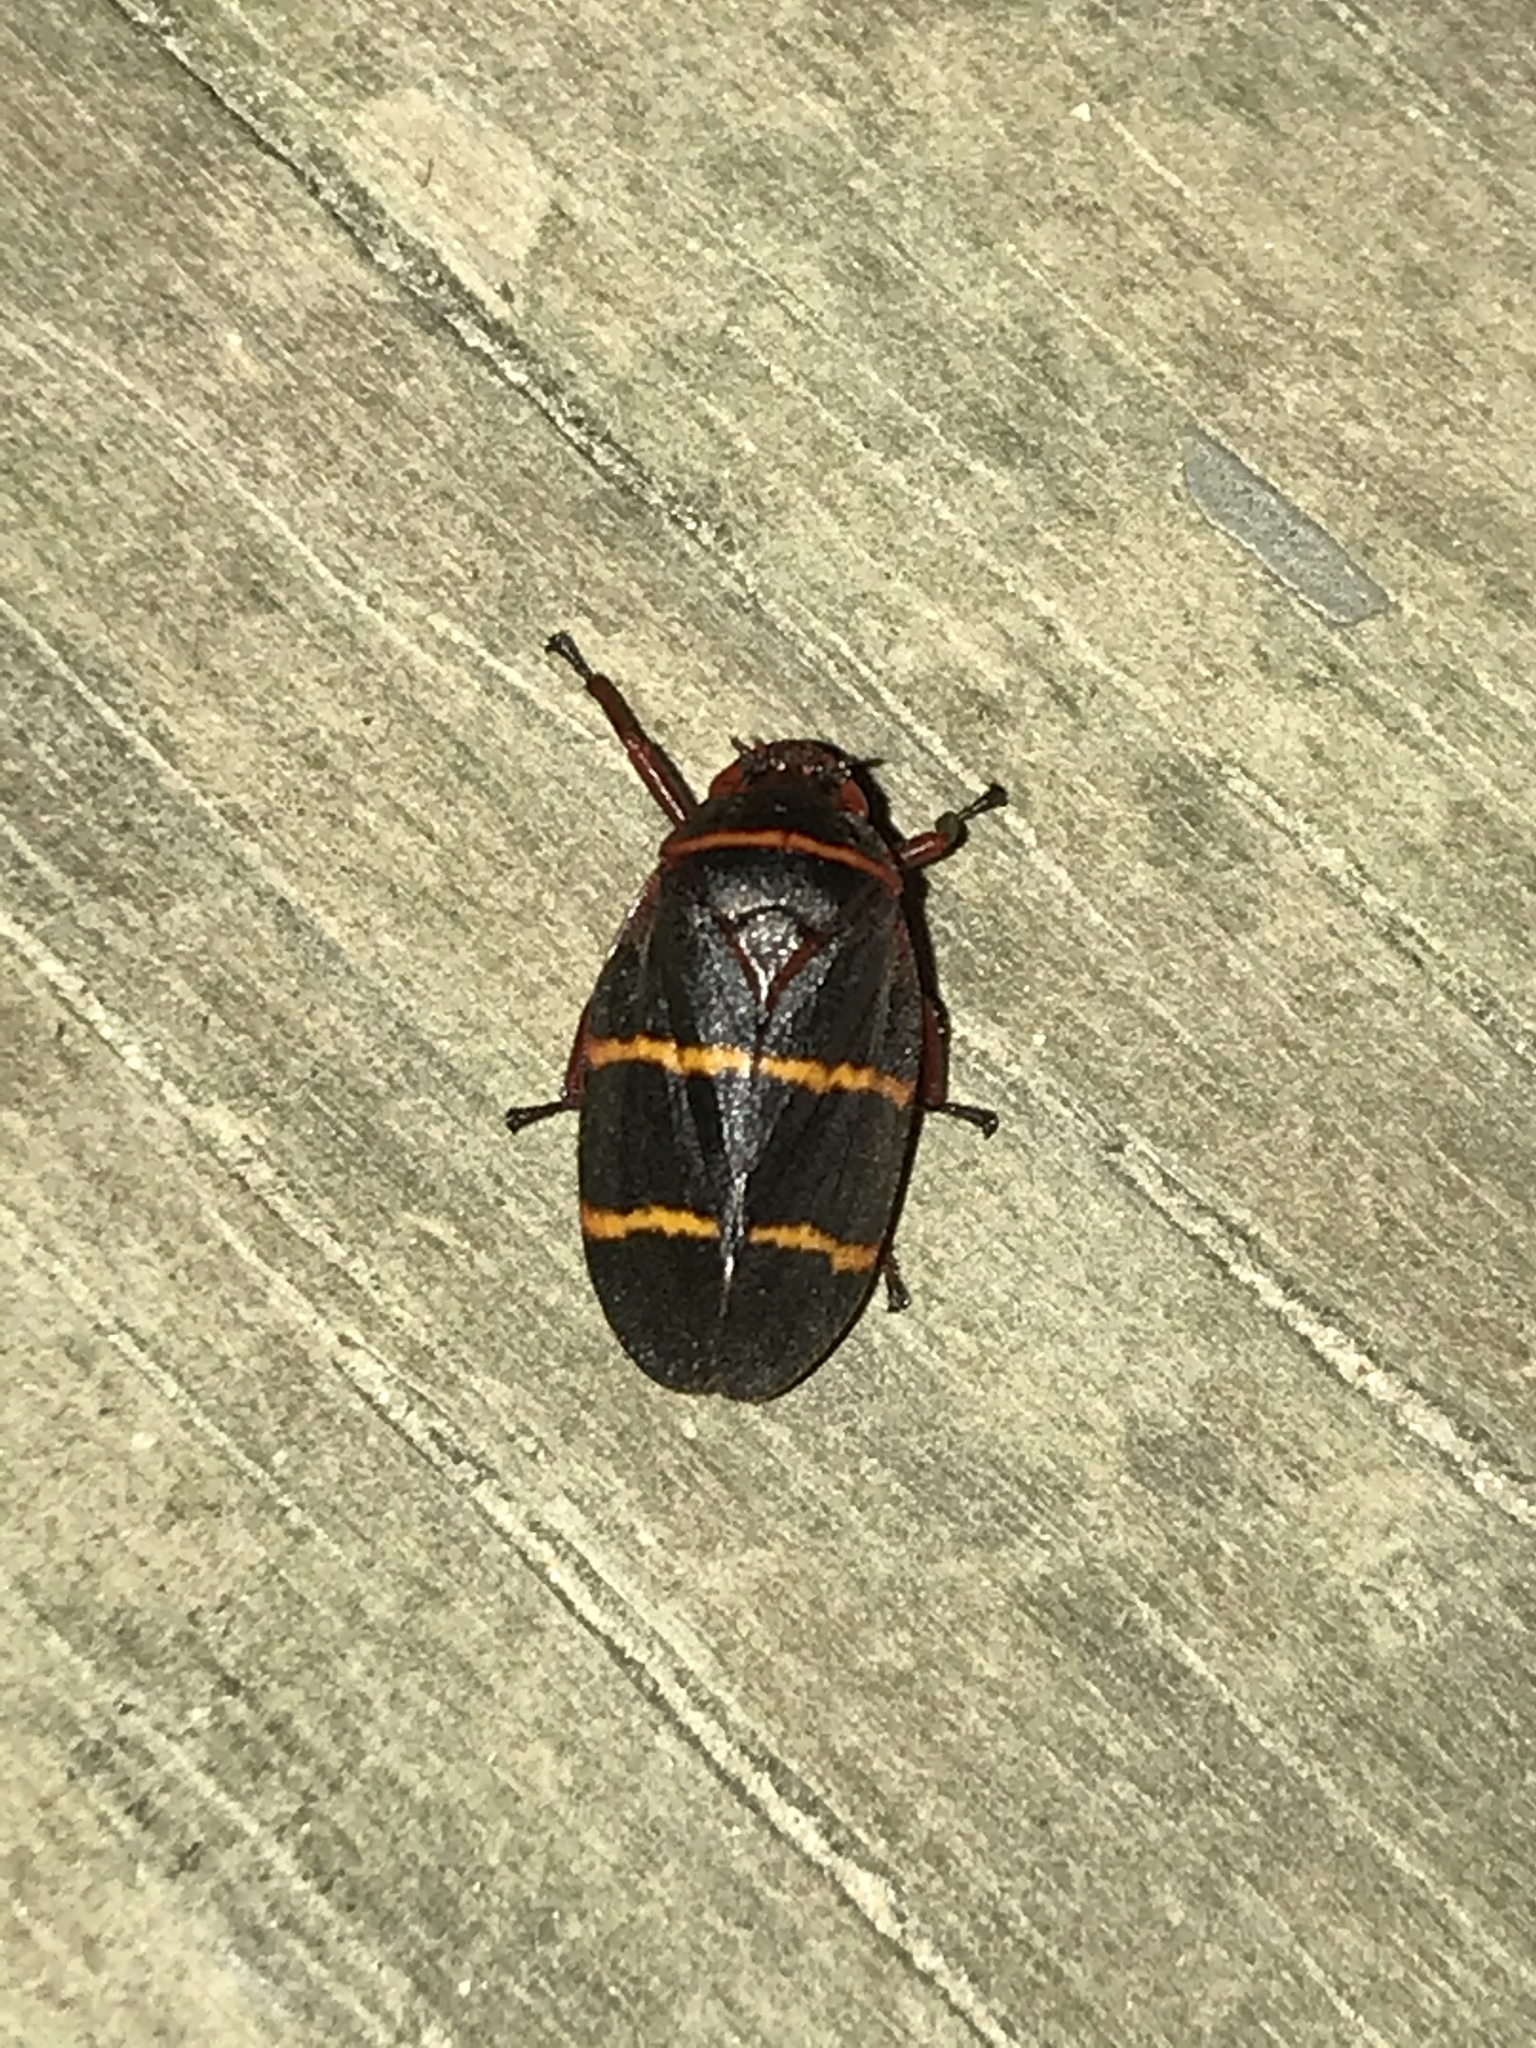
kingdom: Animalia
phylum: Arthropoda
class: Insecta
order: Hemiptera
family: Cercopidae
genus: Prosapia
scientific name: Prosapia bicincta
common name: Twolined spittlebug
